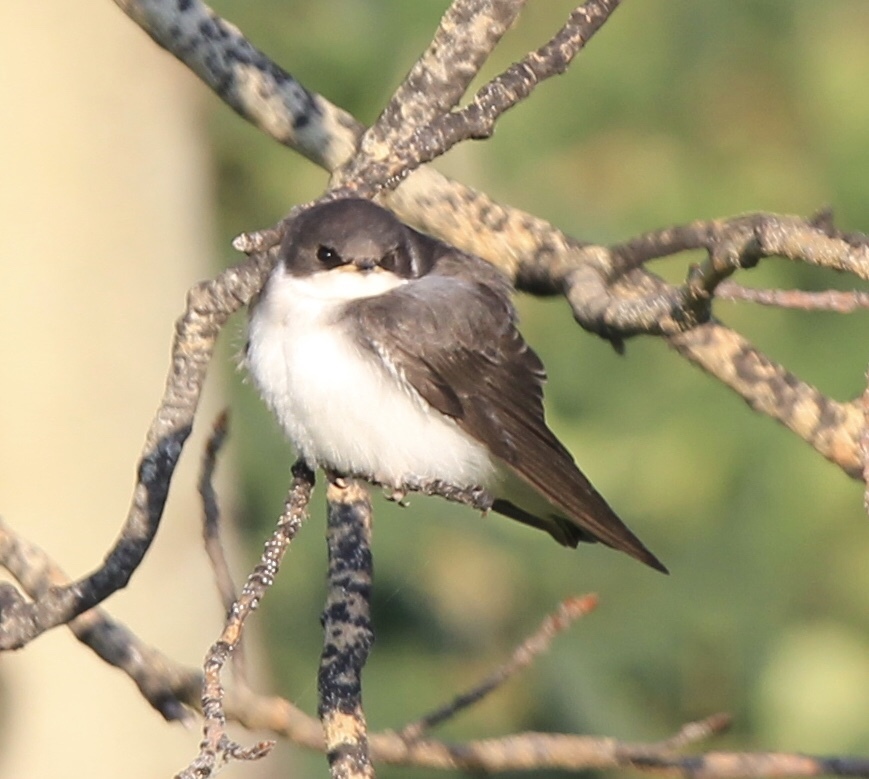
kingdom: Animalia
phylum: Chordata
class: Aves
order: Passeriformes
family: Hirundinidae
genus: Tachycineta
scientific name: Tachycineta bicolor
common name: Tree swallow
